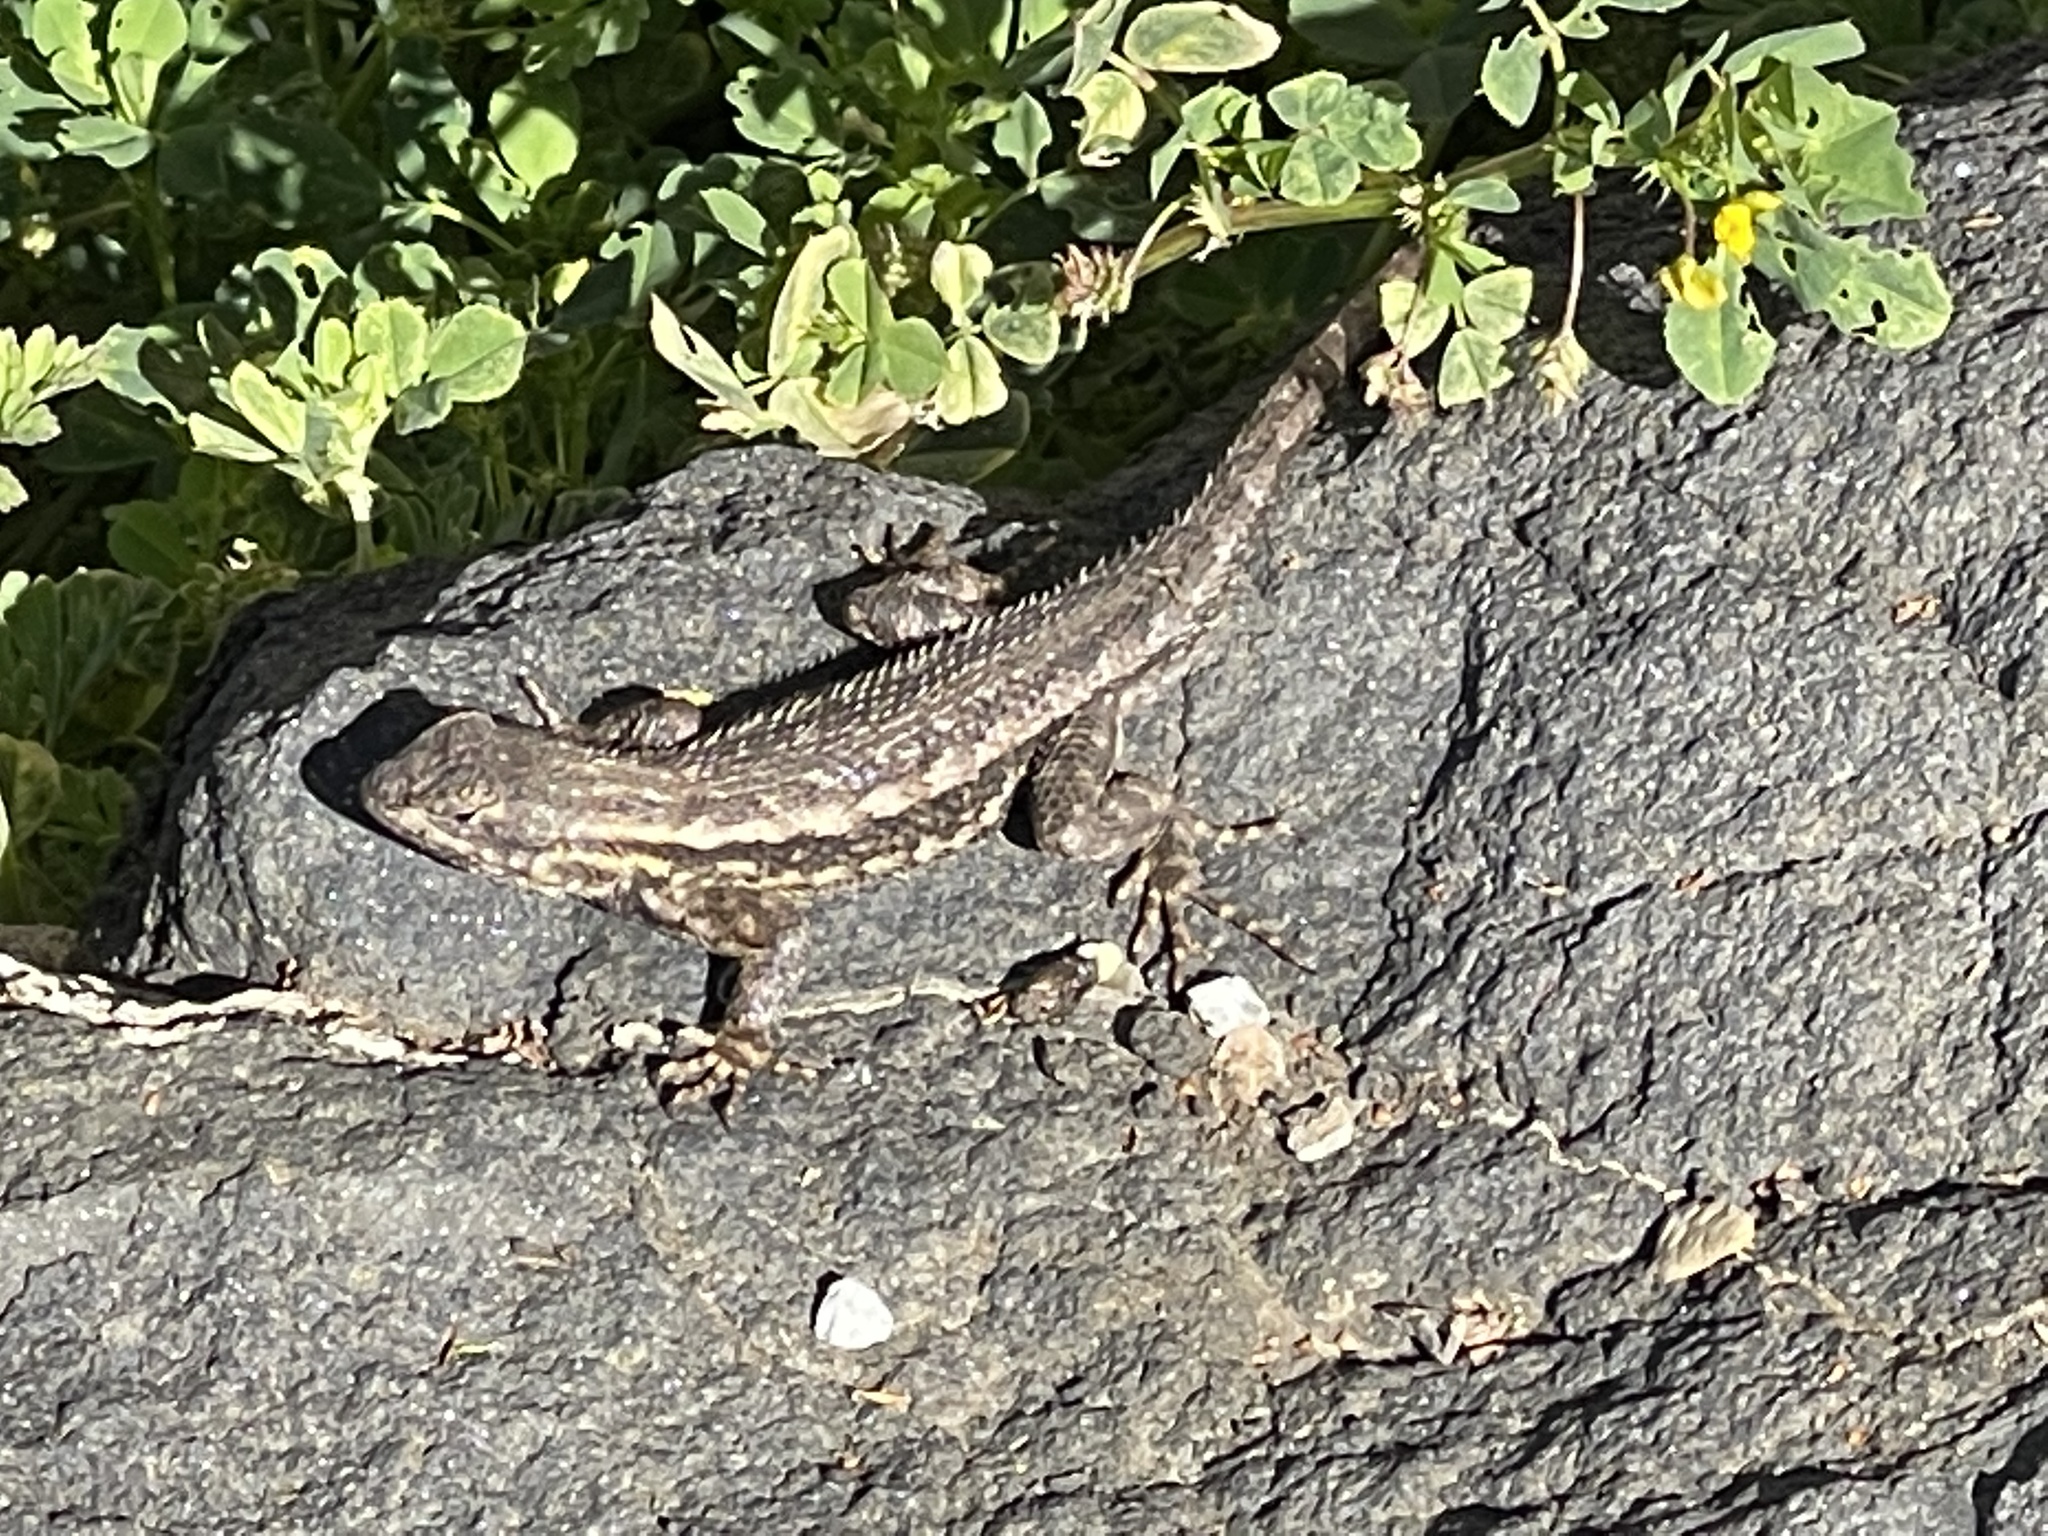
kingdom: Animalia
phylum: Chordata
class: Squamata
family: Phrynosomatidae
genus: Sceloporus
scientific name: Sceloporus occidentalis
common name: Western fence lizard
